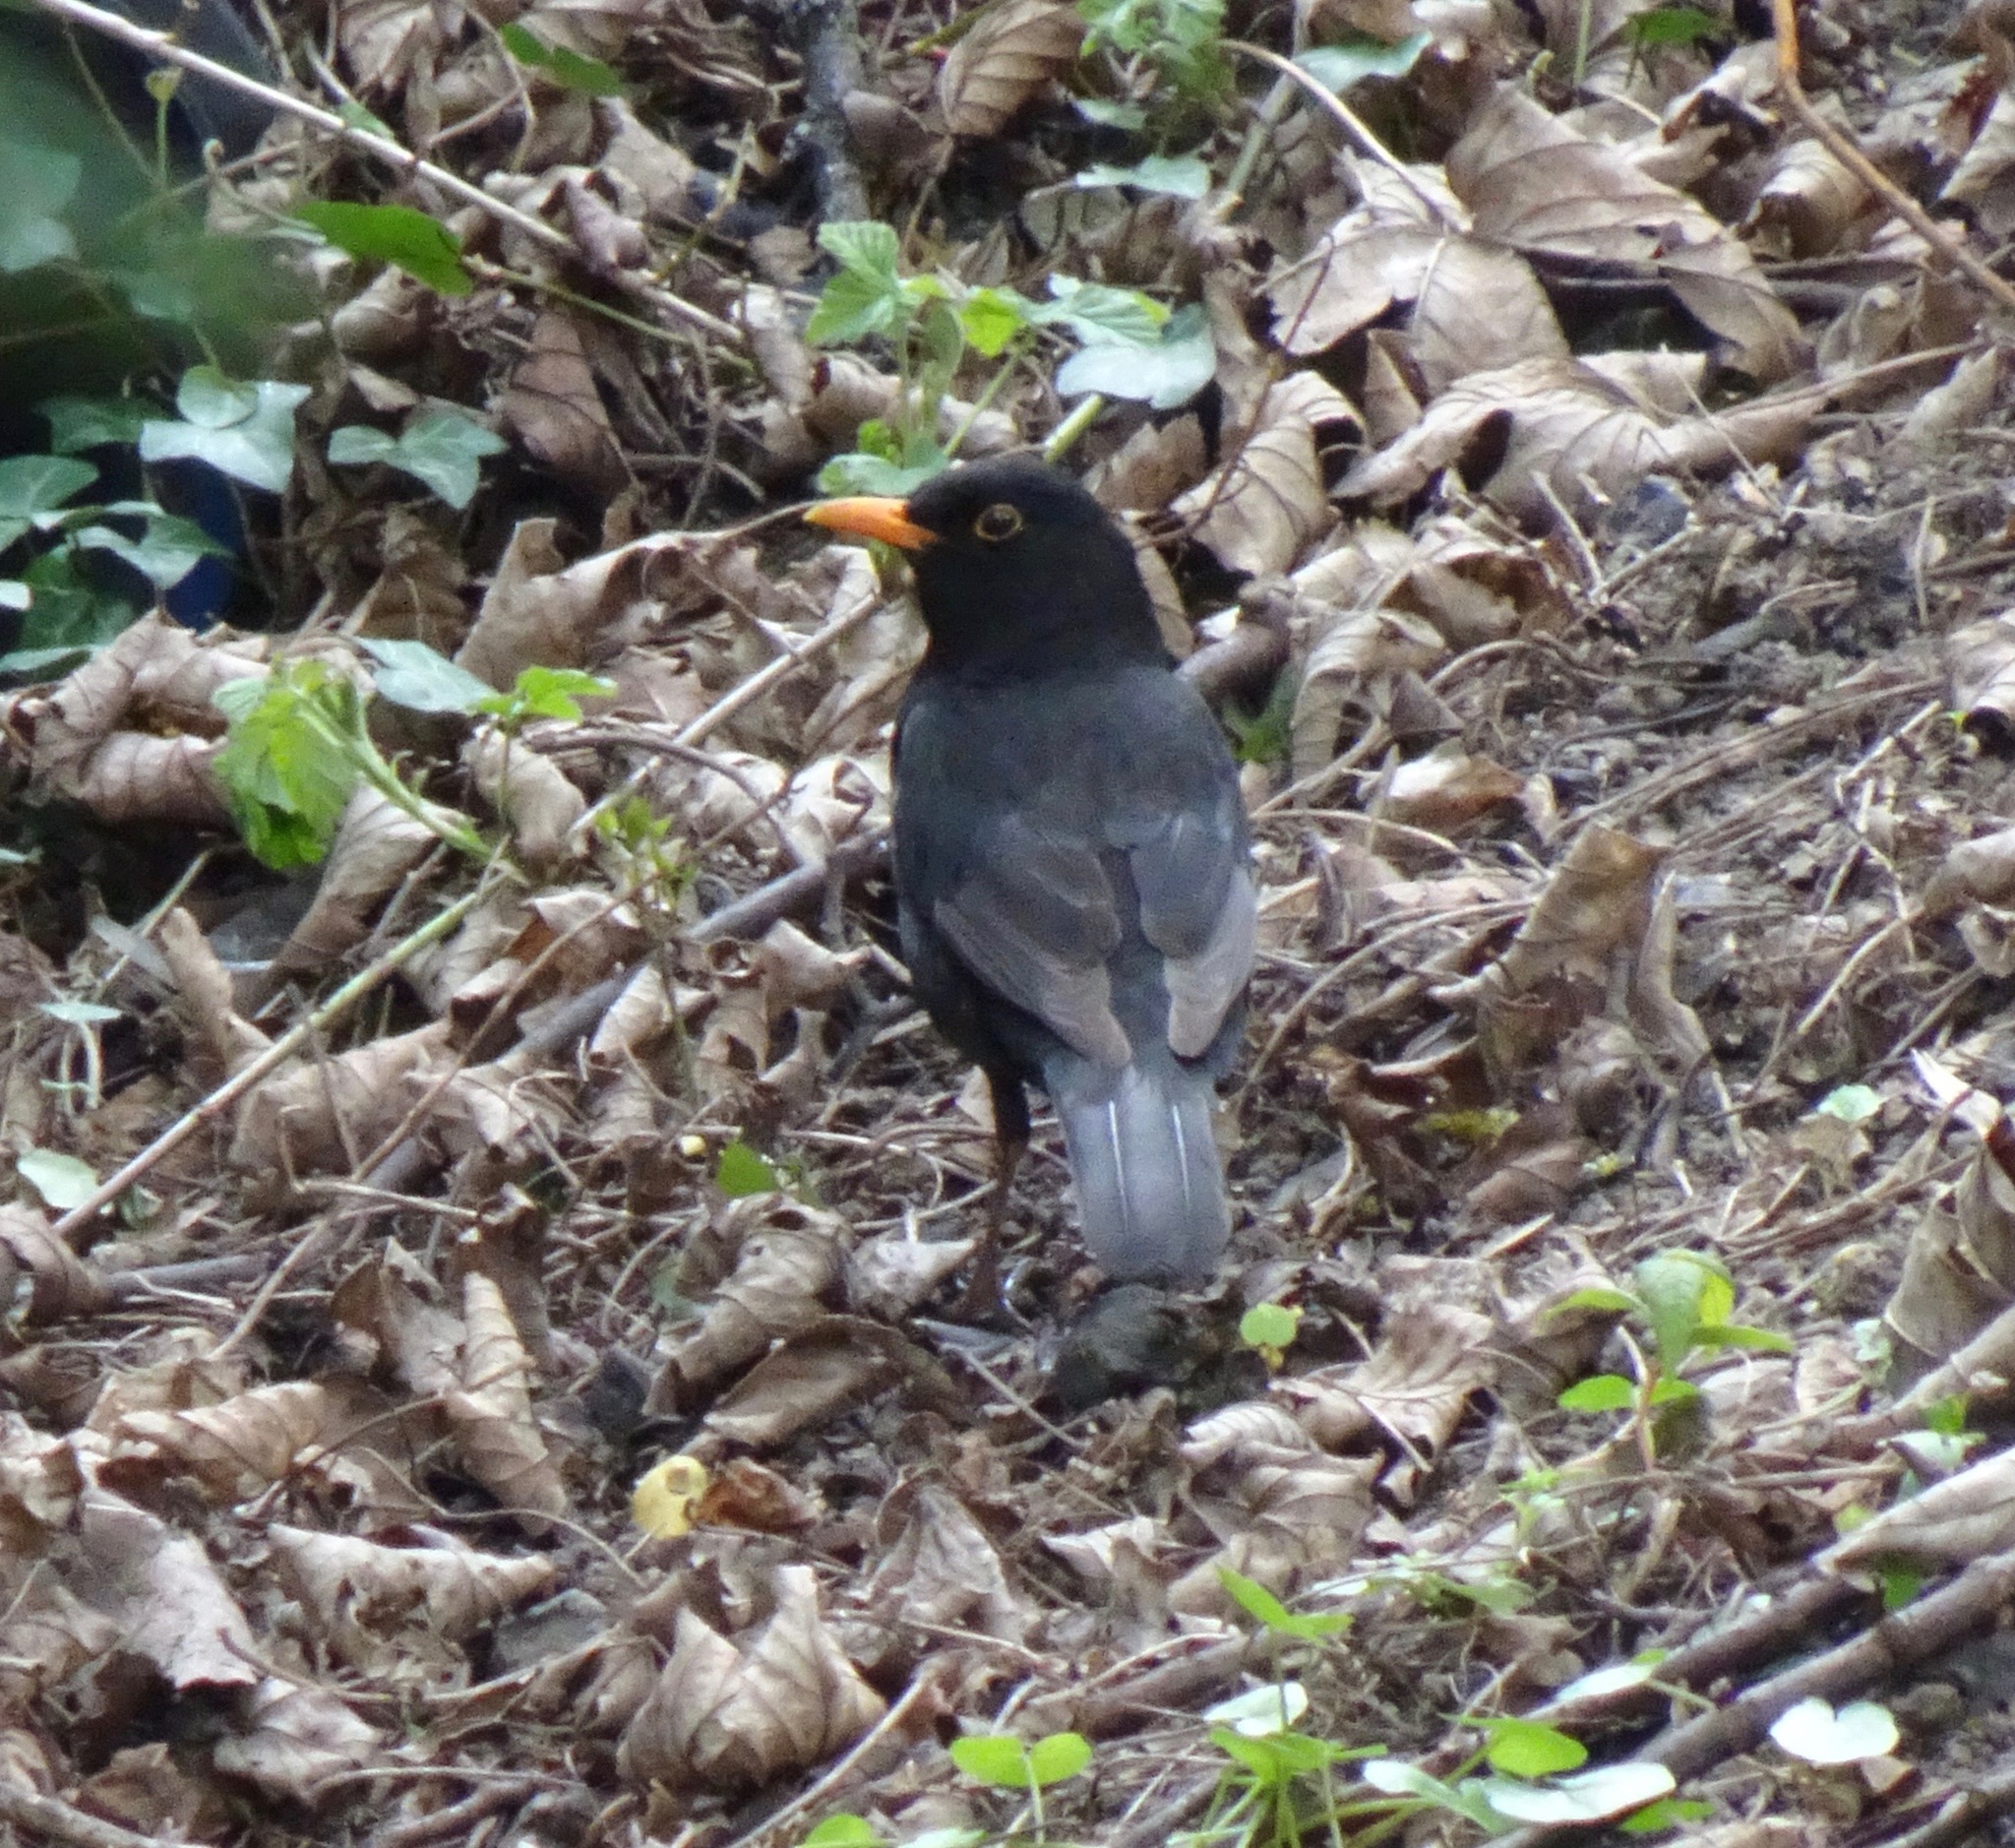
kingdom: Animalia
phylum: Chordata
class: Aves
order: Passeriformes
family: Turdidae
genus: Turdus
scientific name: Turdus merula
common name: Common blackbird
